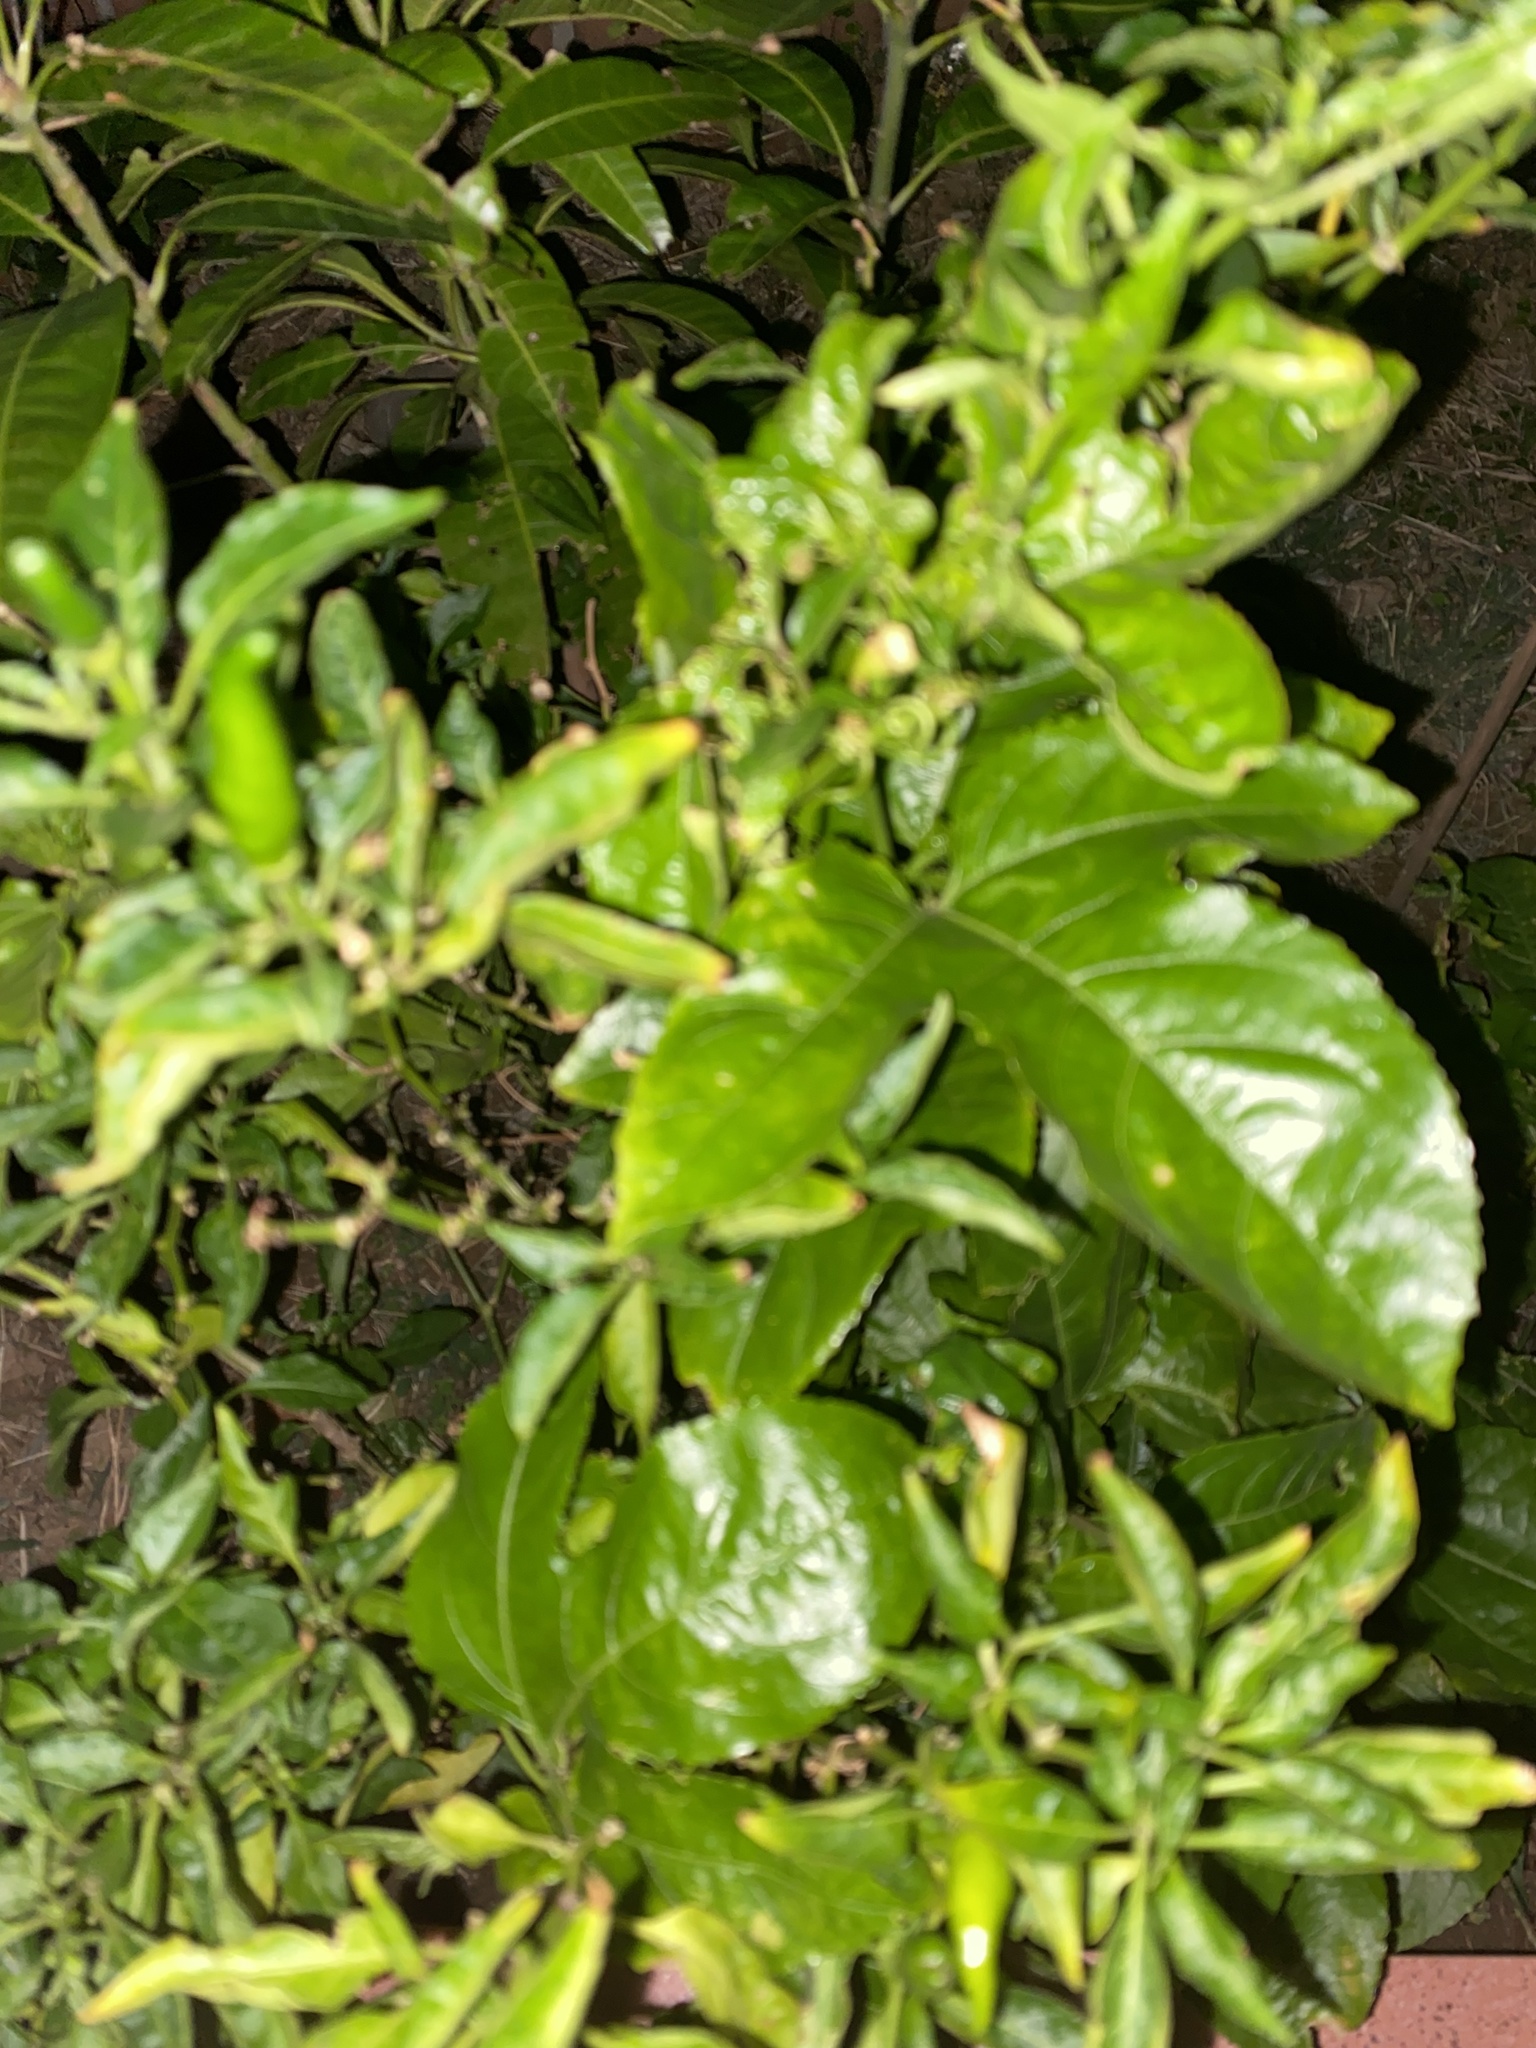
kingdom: Plantae
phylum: Tracheophyta
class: Magnoliopsida
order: Malpighiales
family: Passifloraceae
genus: Passiflora
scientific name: Passiflora edulis
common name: Purple granadilla
